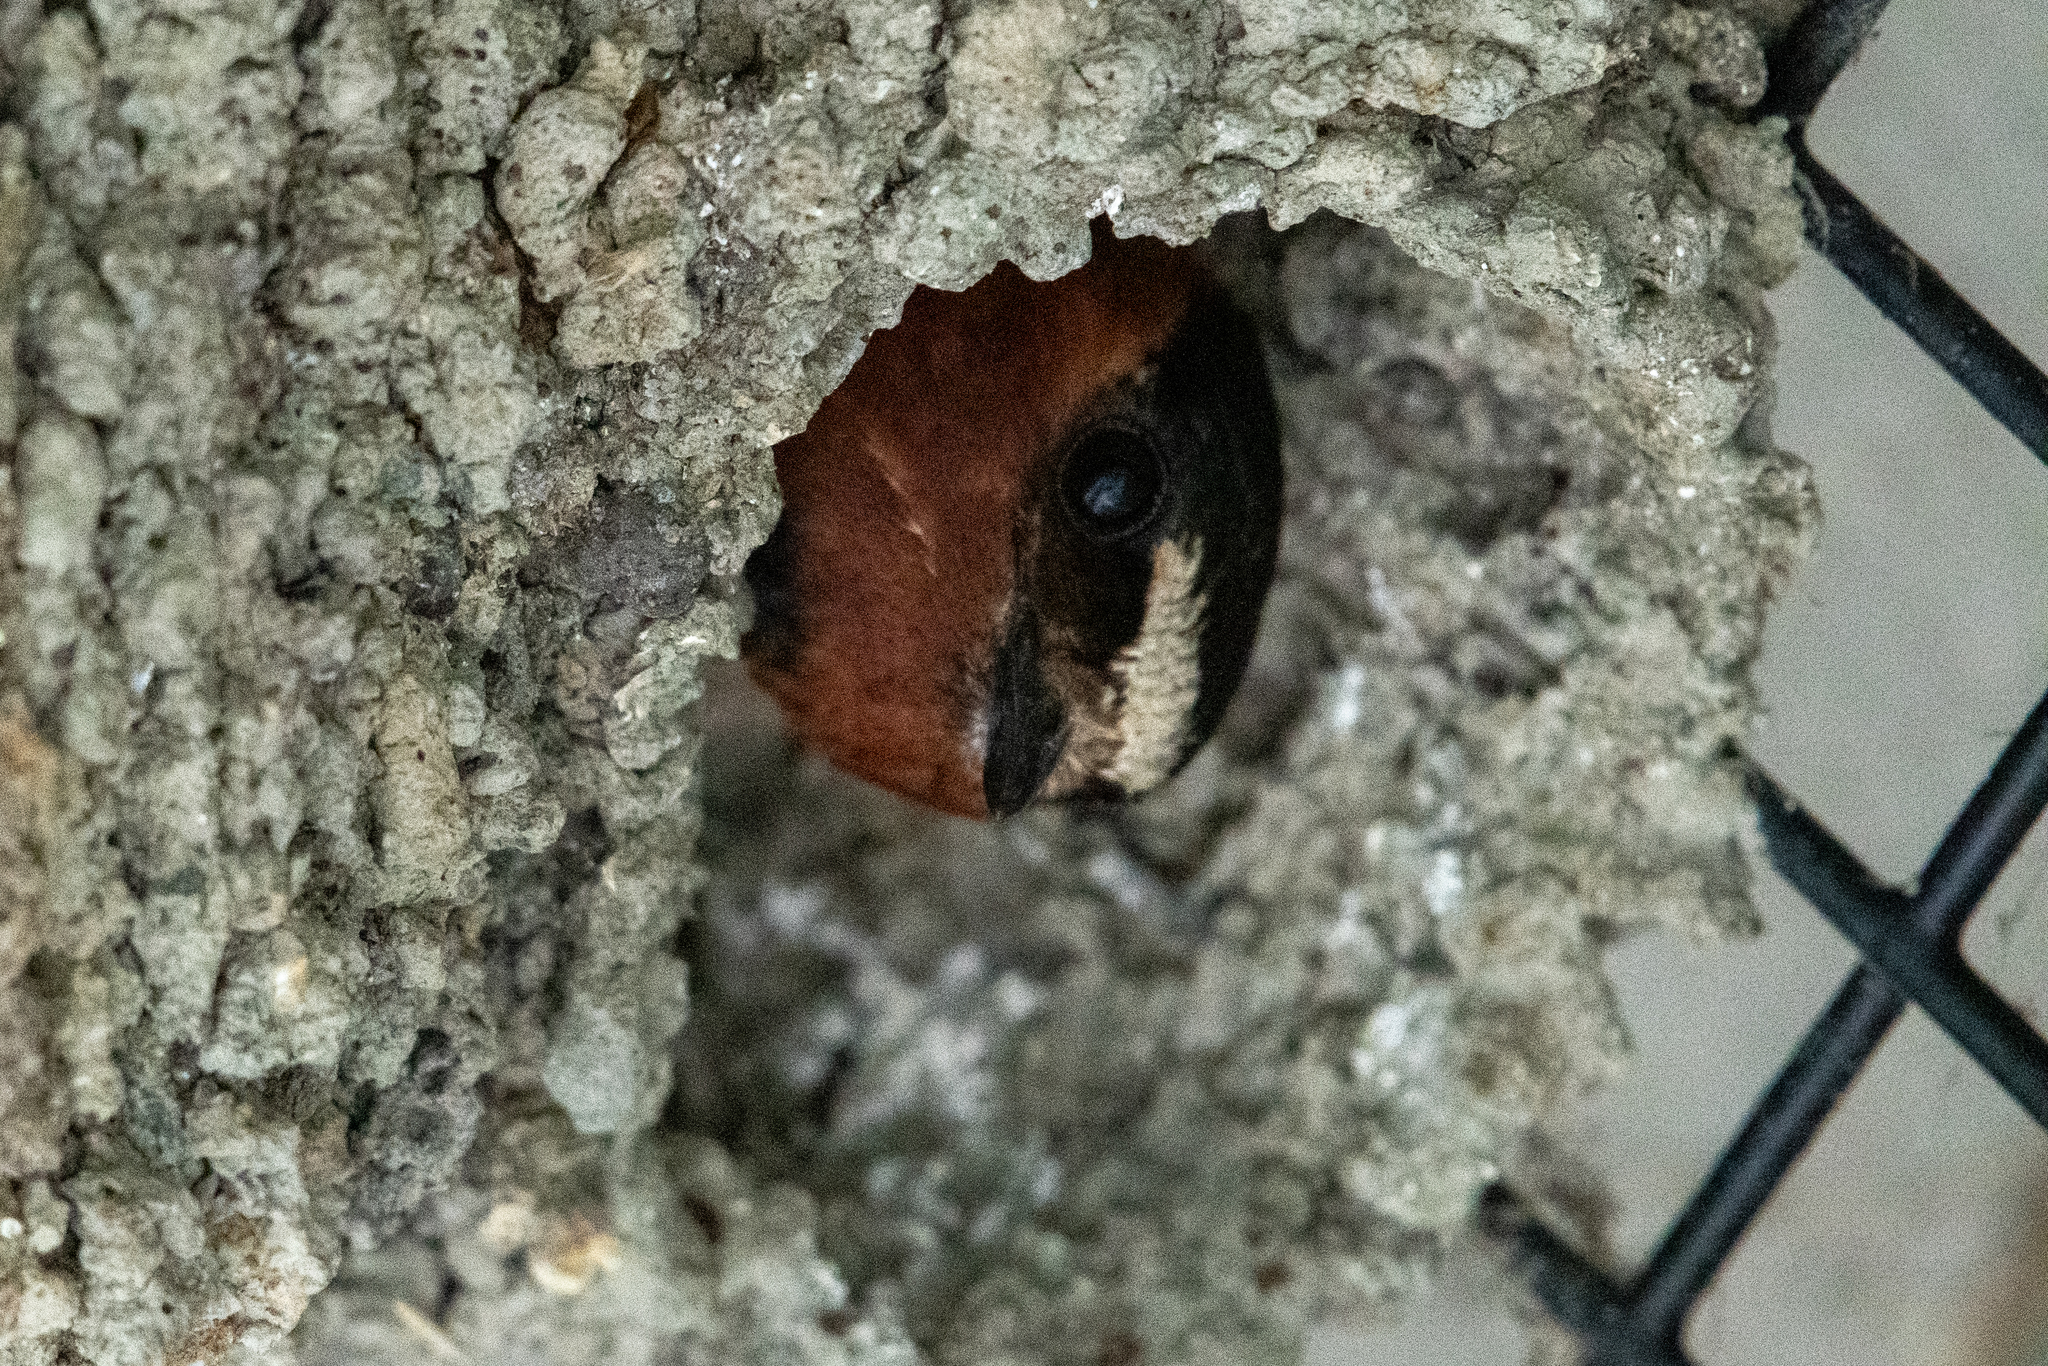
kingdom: Animalia
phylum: Chordata
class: Aves
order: Passeriformes
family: Hirundinidae
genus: Petrochelidon
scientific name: Petrochelidon pyrrhonota
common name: American cliff swallow
